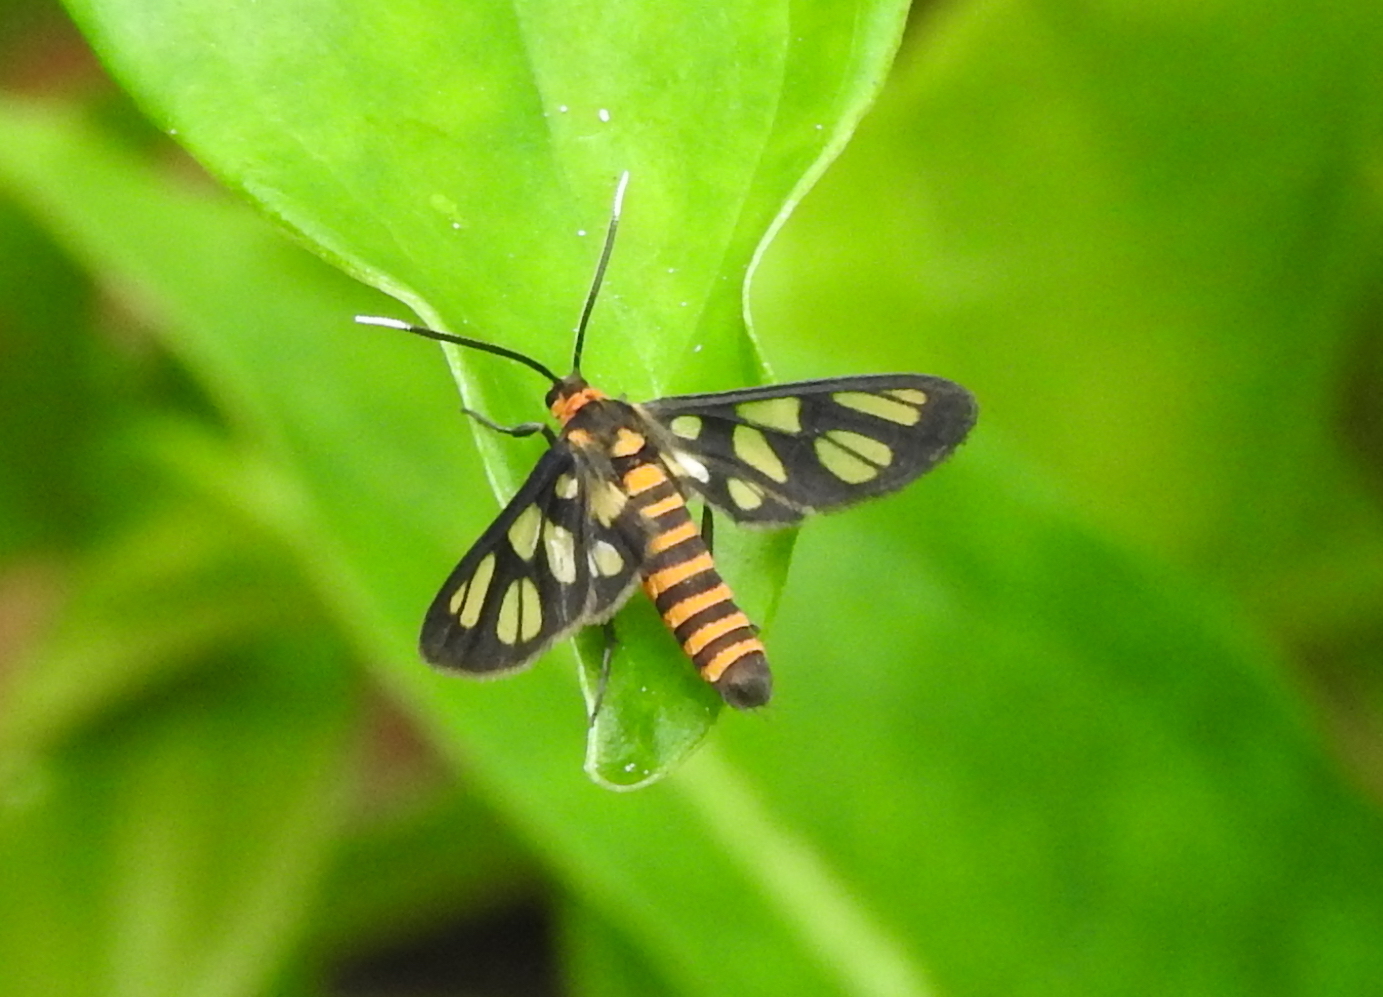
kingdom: Animalia
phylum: Arthropoda
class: Insecta
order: Lepidoptera
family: Erebidae
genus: Amata
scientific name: Amata huebneri
